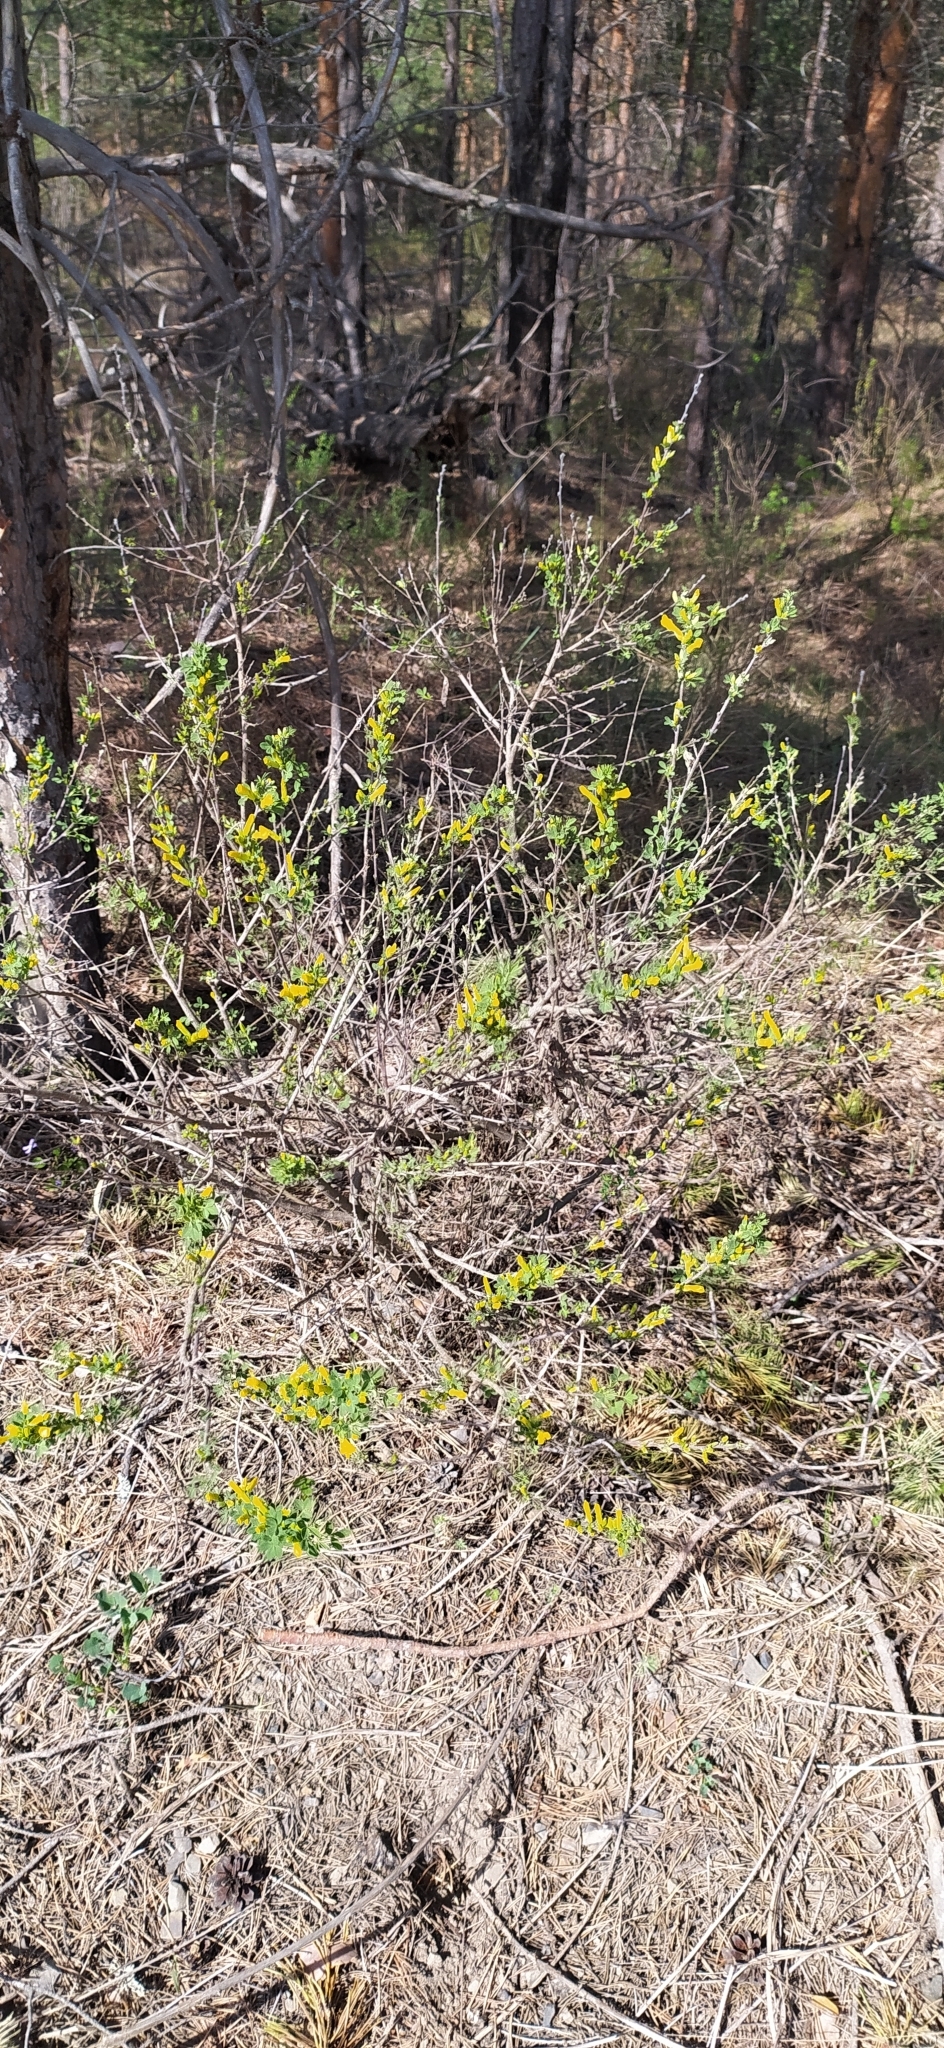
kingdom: Plantae
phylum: Tracheophyta
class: Magnoliopsida
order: Fabales
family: Fabaceae
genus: Chamaecytisus
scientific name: Chamaecytisus ruthenicus
